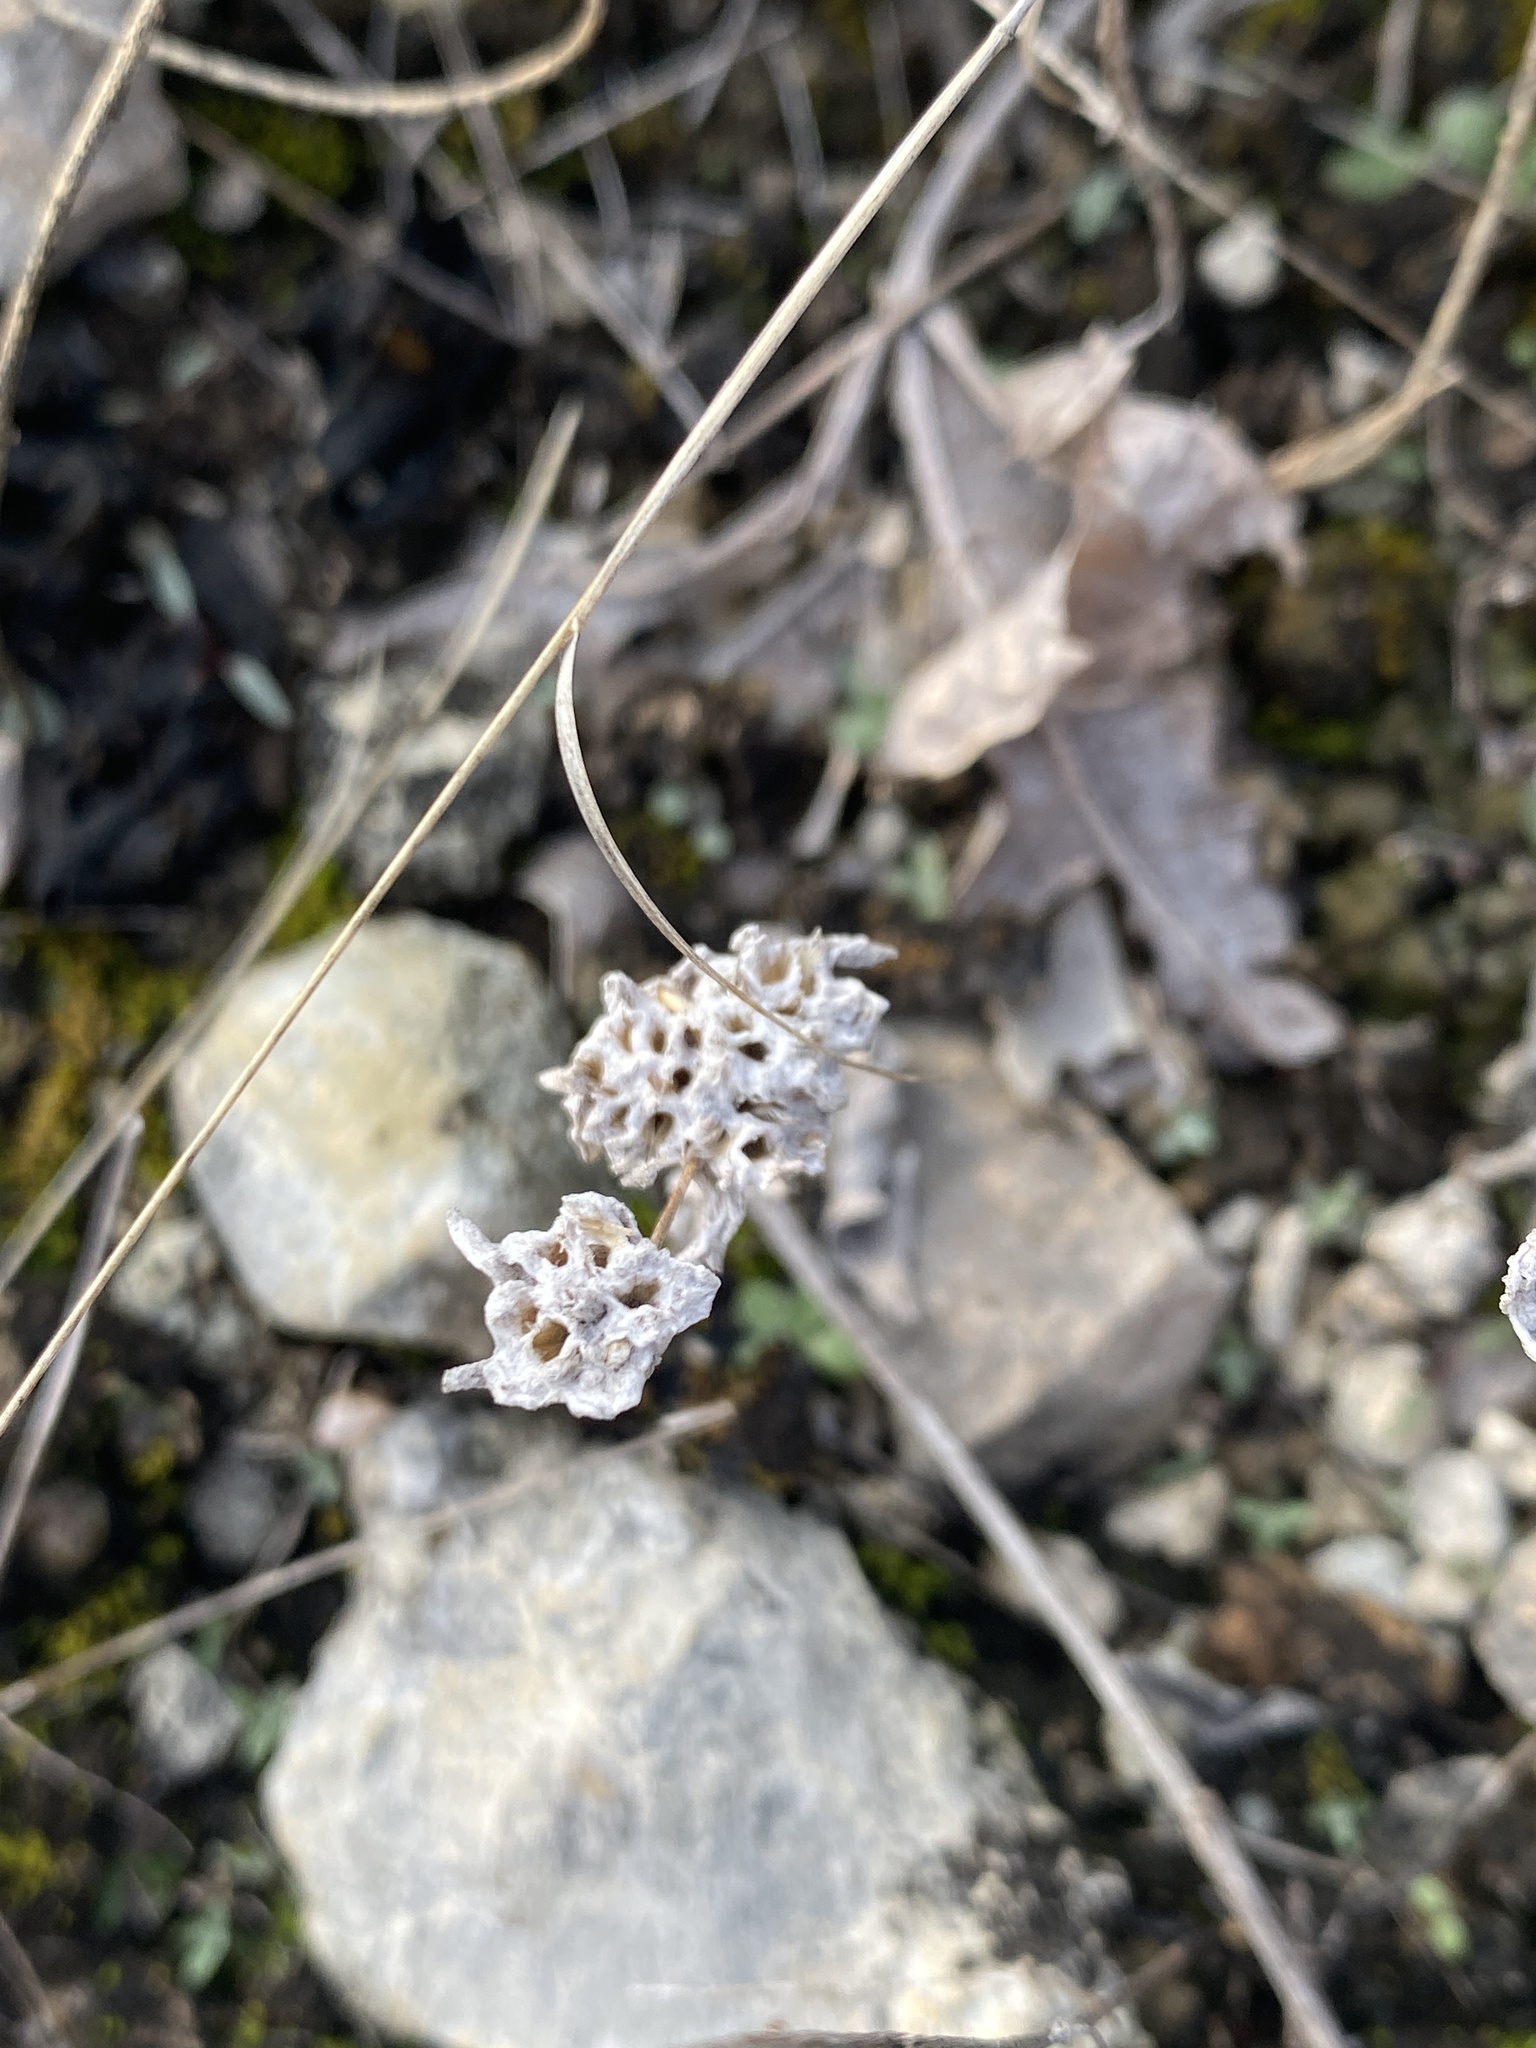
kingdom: Plantae
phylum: Tracheophyta
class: Magnoliopsida
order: Asterales
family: Asteraceae
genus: Diaperia
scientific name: Diaperia prolifera
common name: Big-head rabbit-tobacco
